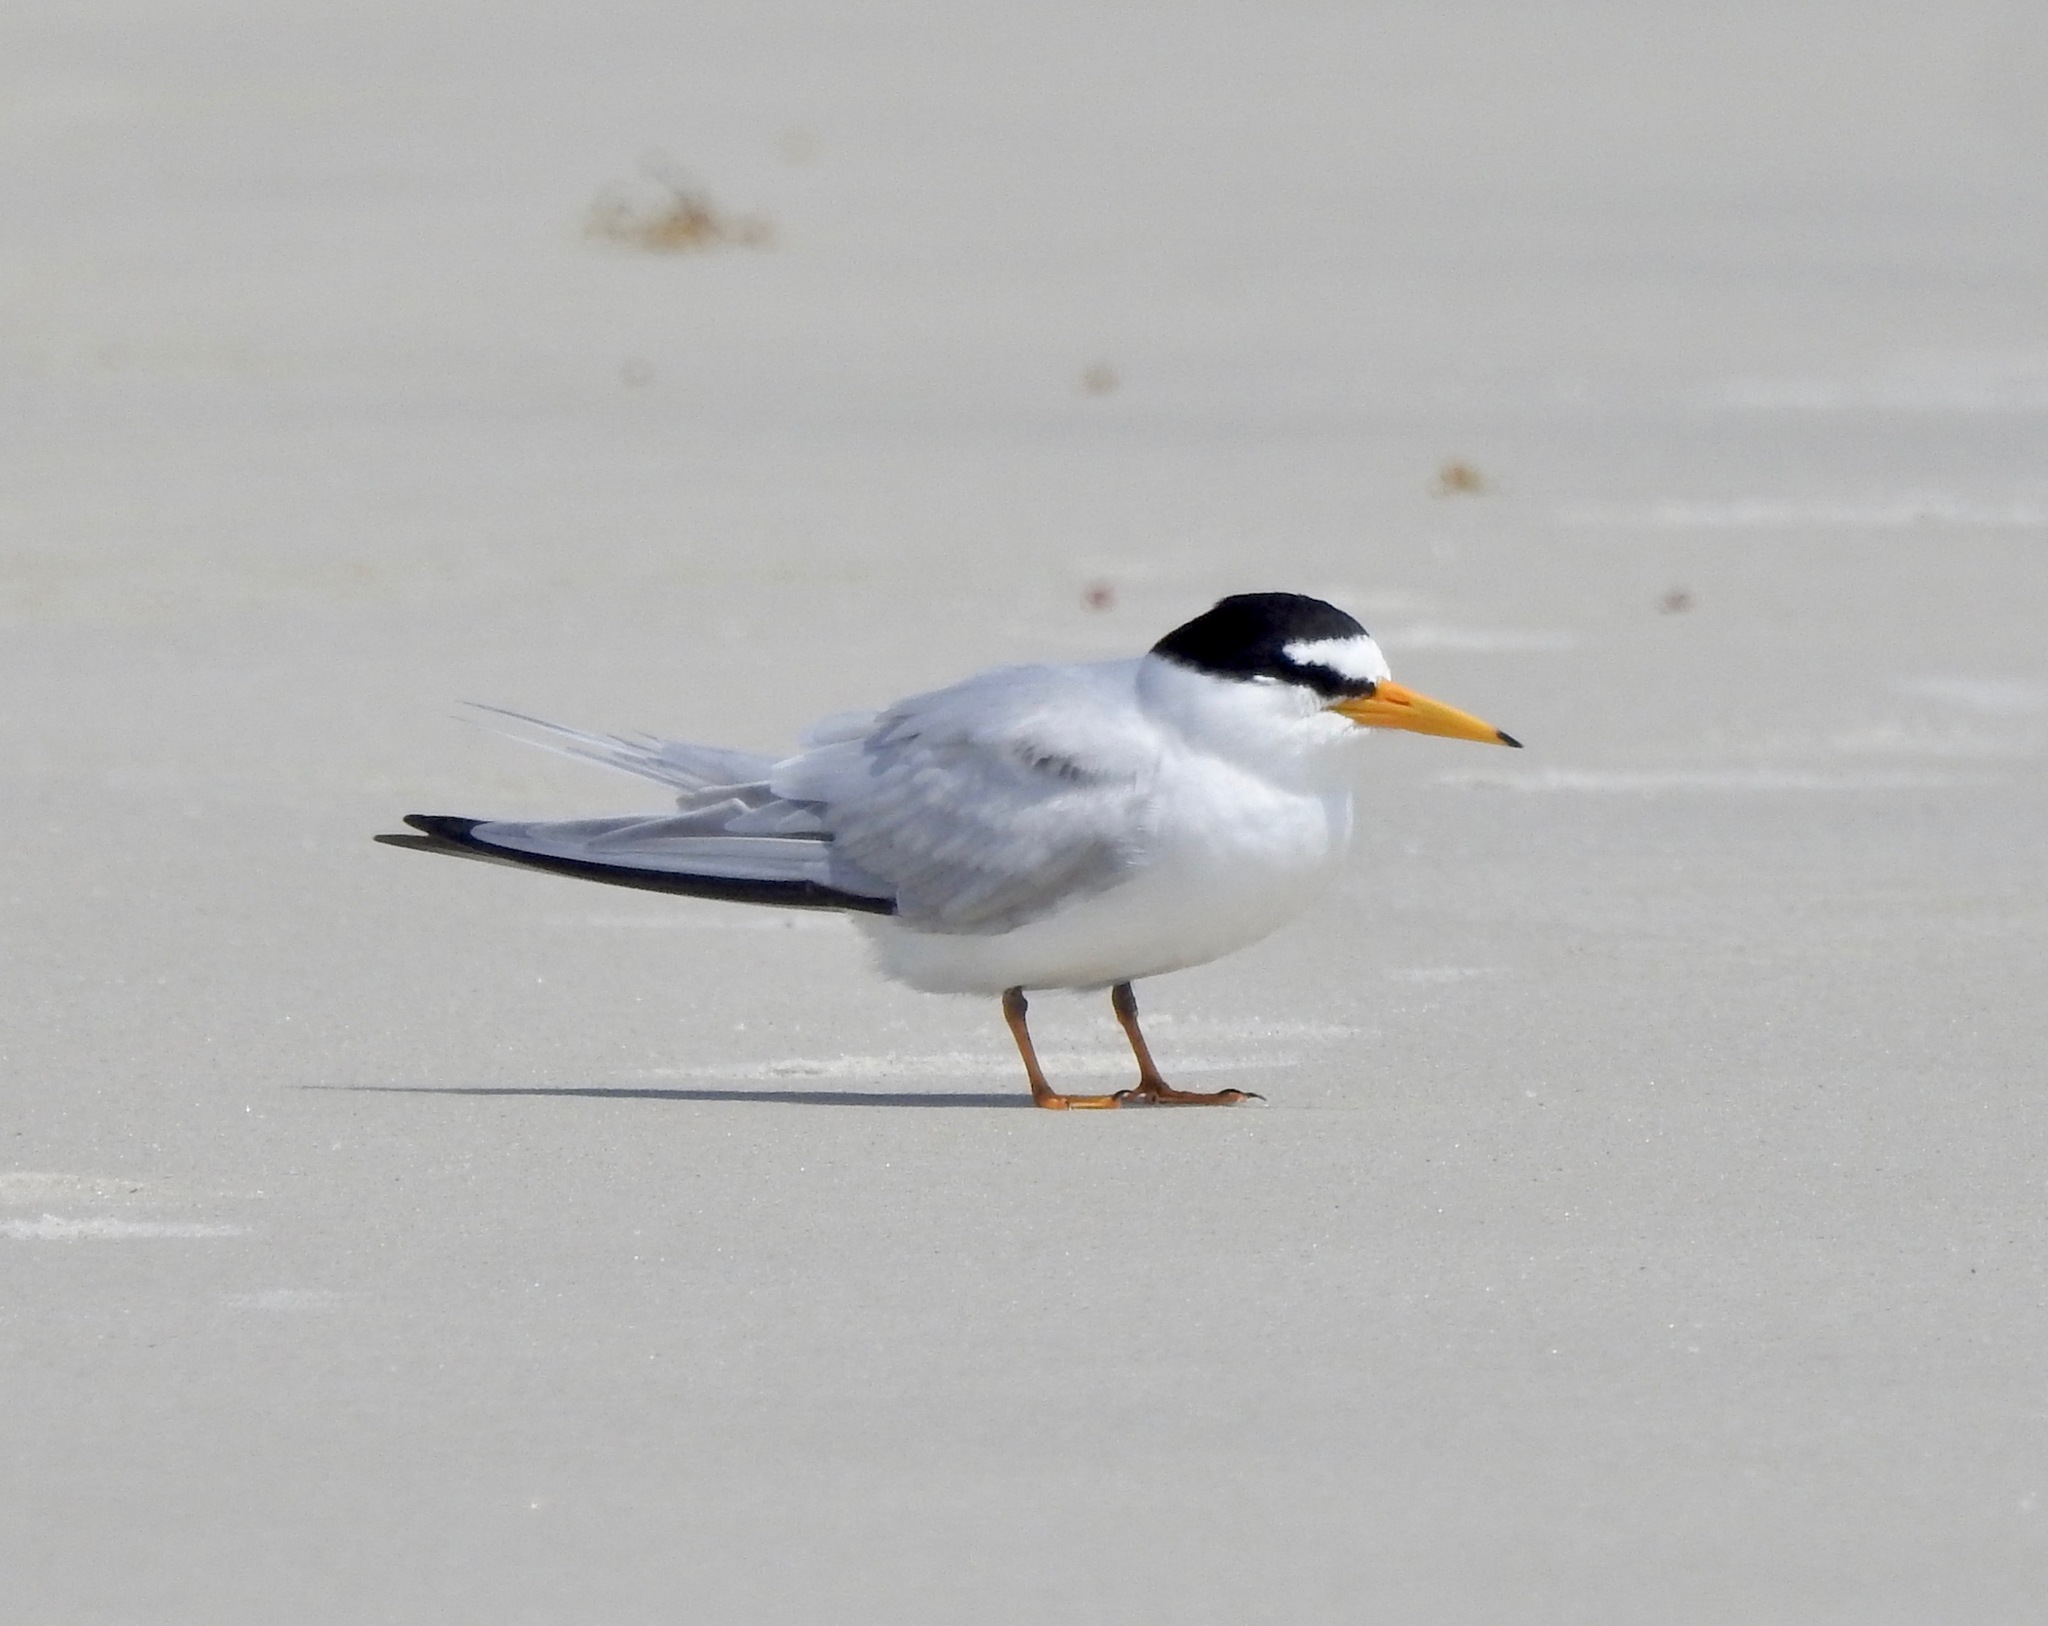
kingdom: Animalia
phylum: Chordata
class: Aves
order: Charadriiformes
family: Laridae
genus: Sternula
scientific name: Sternula antillarum
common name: Least tern
